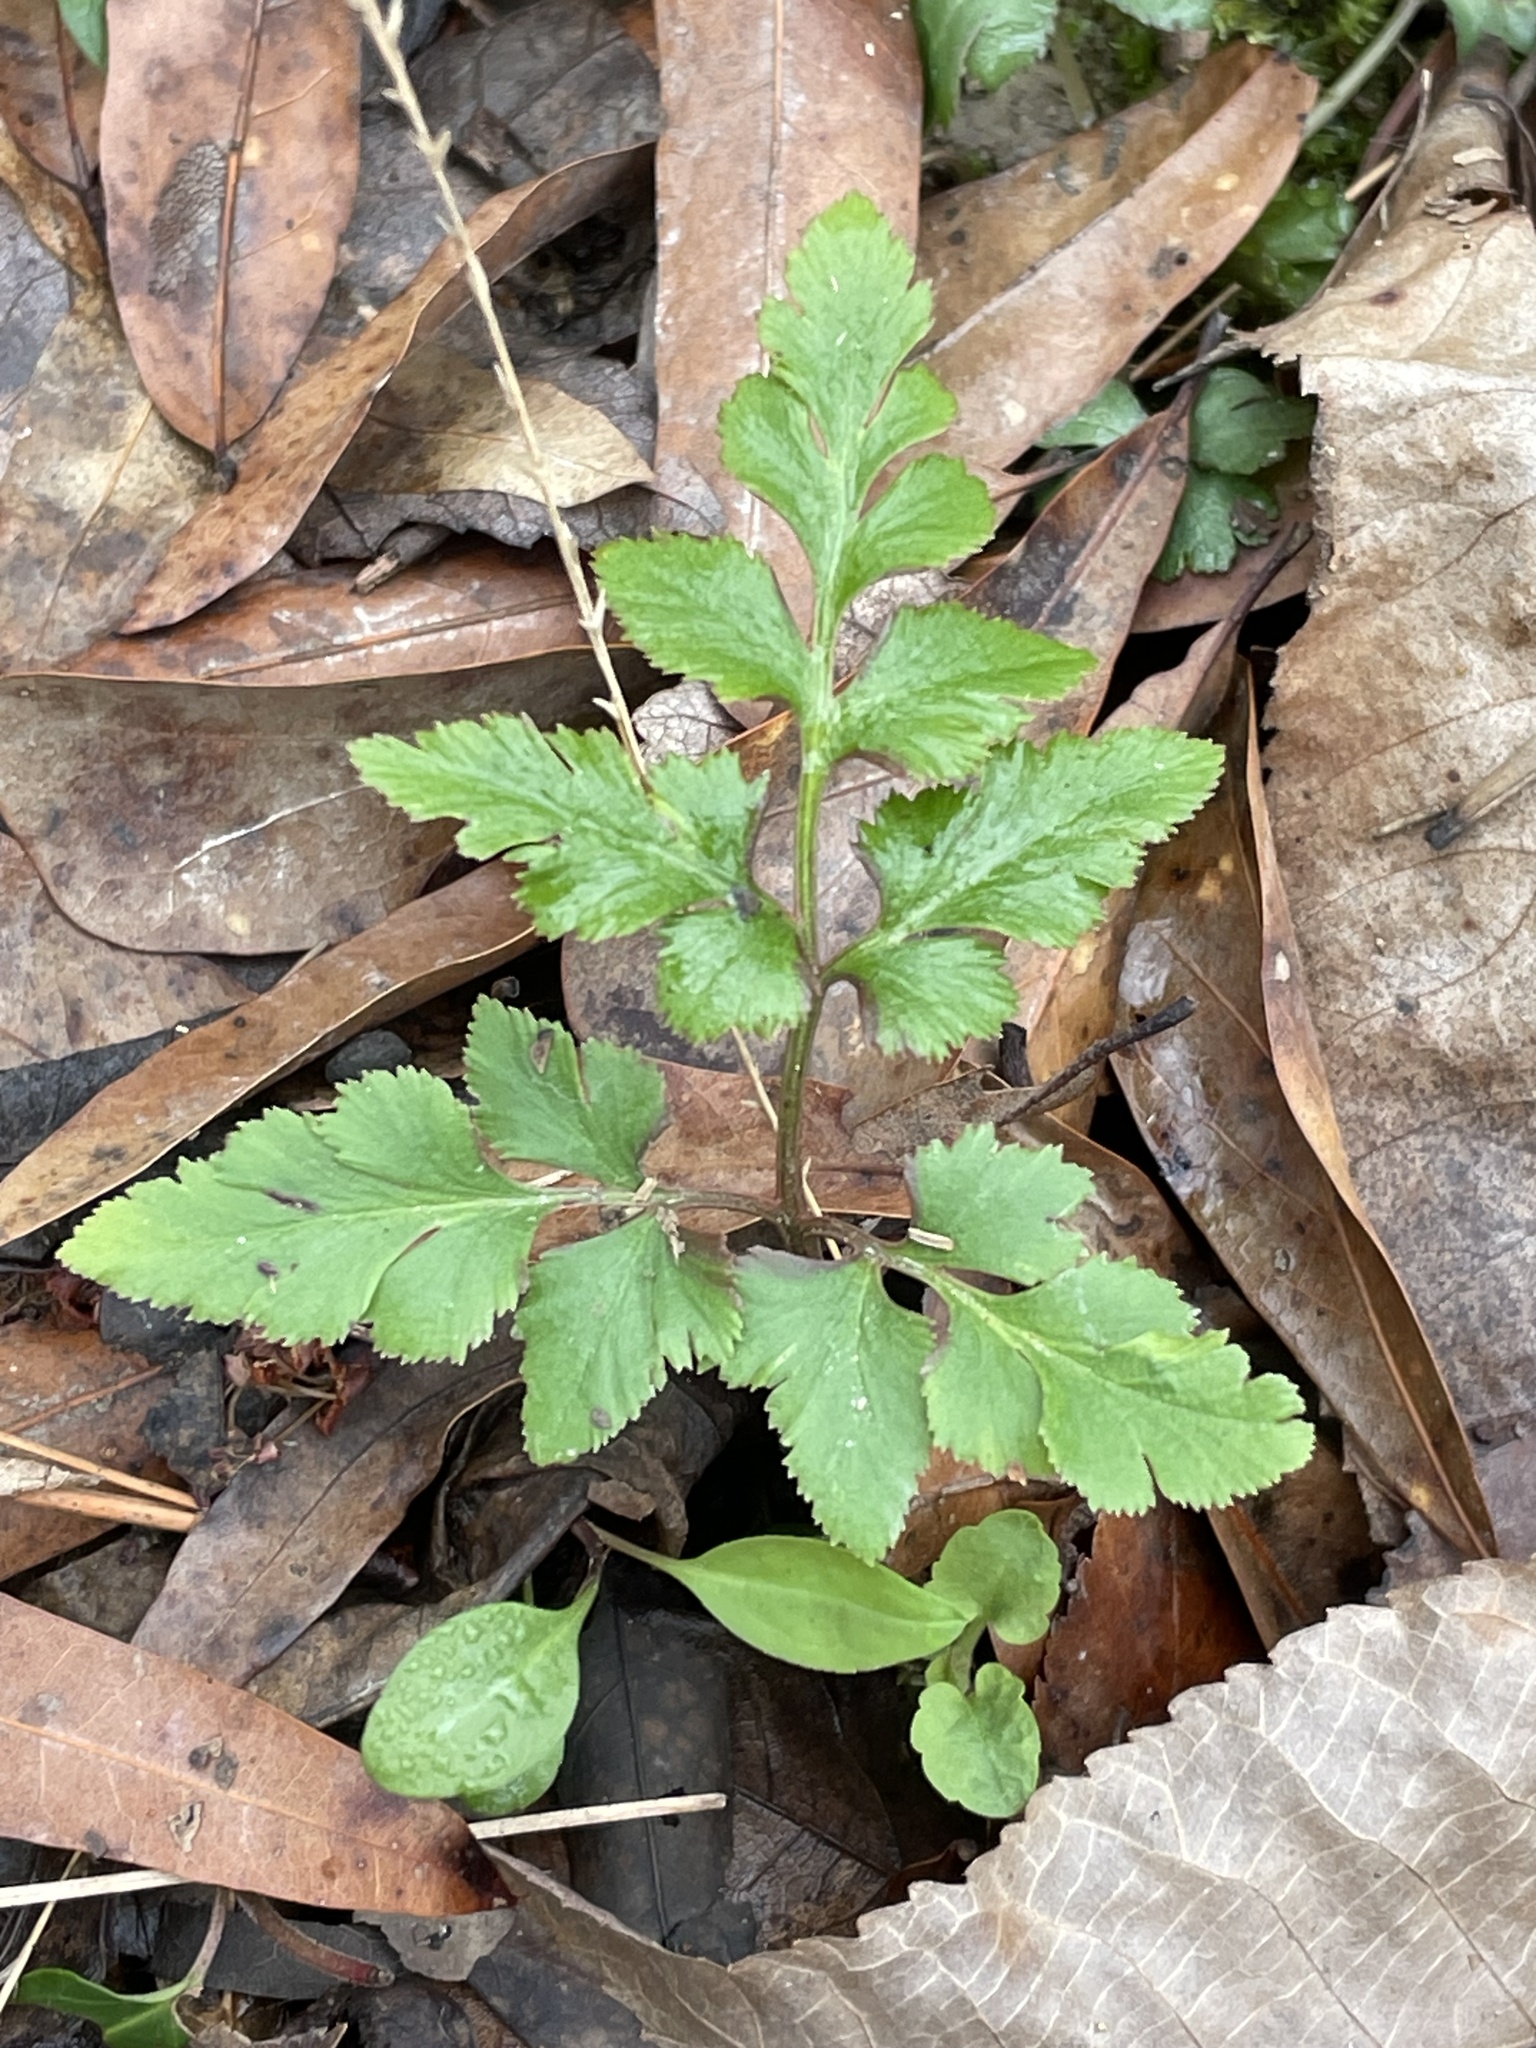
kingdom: Plantae
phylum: Tracheophyta
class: Polypodiopsida
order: Ophioglossales
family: Ophioglossaceae
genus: Sceptridium
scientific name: Sceptridium dissectum
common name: Cut-leaved grapefern
